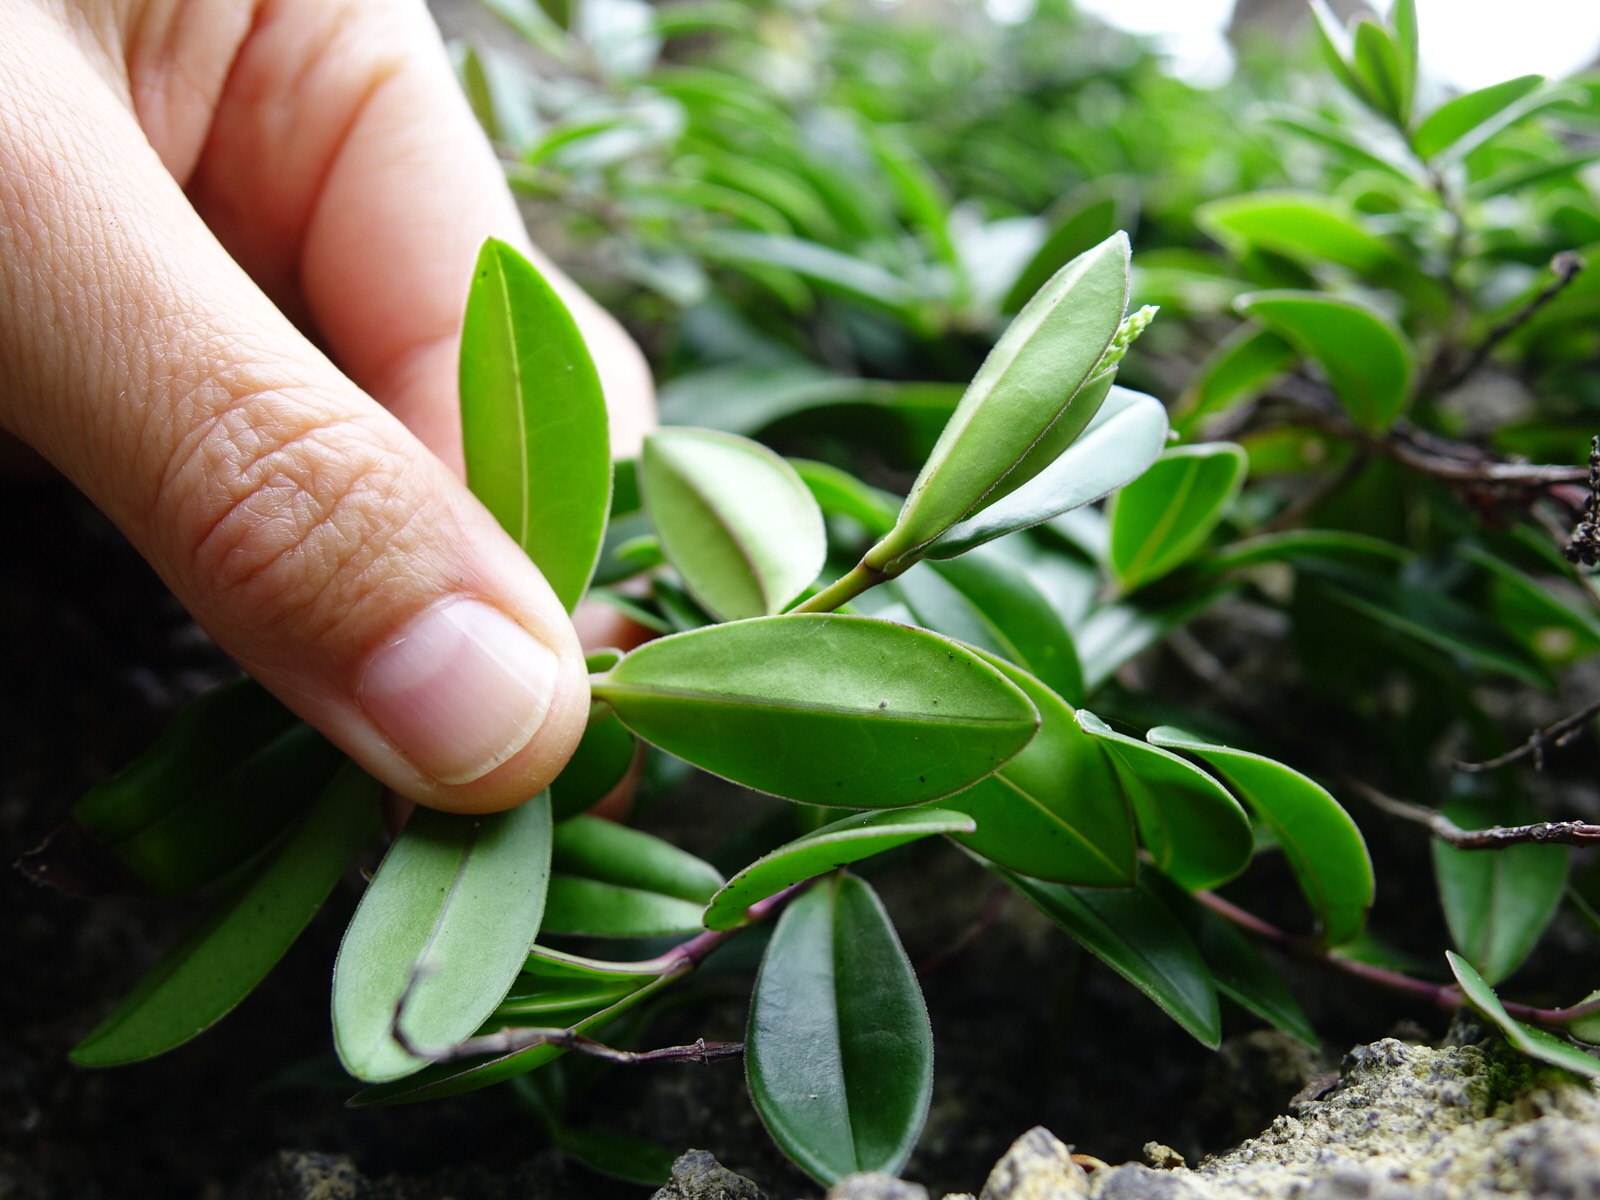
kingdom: Plantae
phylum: Tracheophyta
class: Magnoliopsida
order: Lamiales
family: Plantaginaceae
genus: Veronica
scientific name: Veronica obtusata
